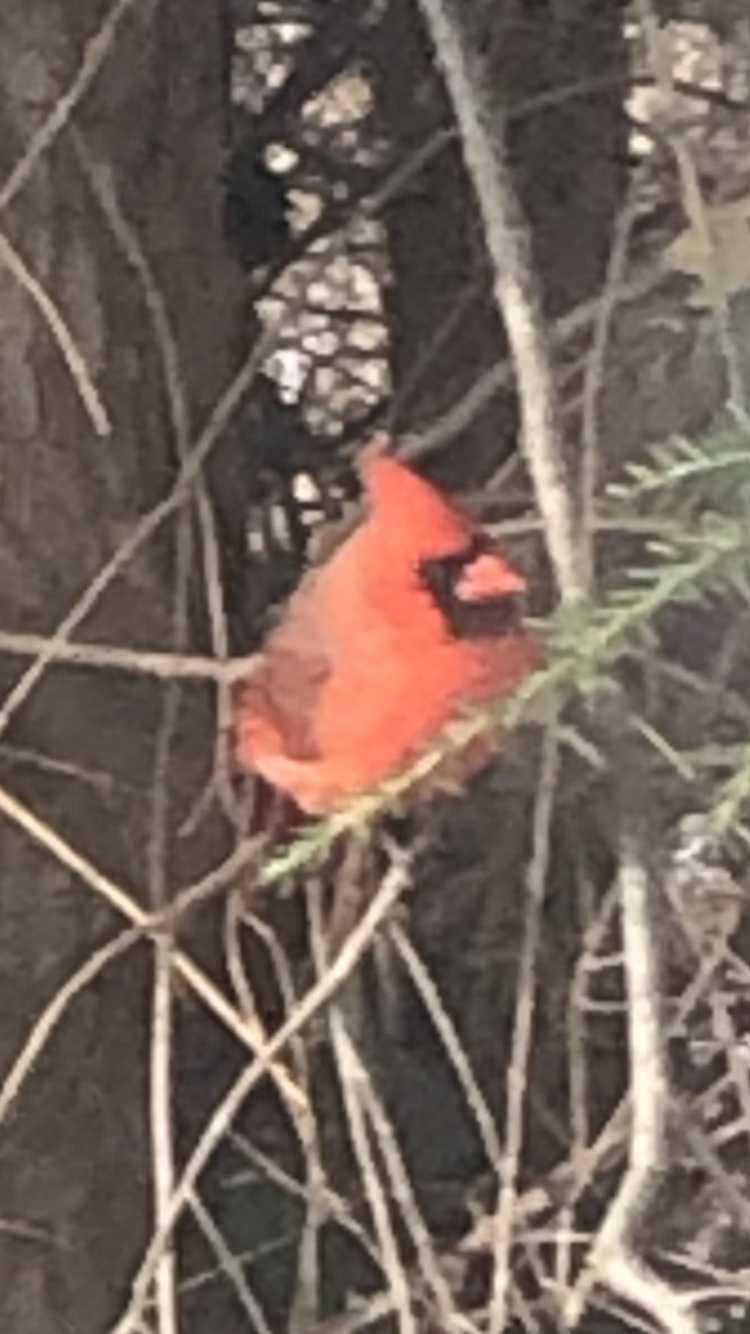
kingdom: Animalia
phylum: Chordata
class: Aves
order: Passeriformes
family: Cardinalidae
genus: Cardinalis
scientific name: Cardinalis cardinalis
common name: Northern cardinal
